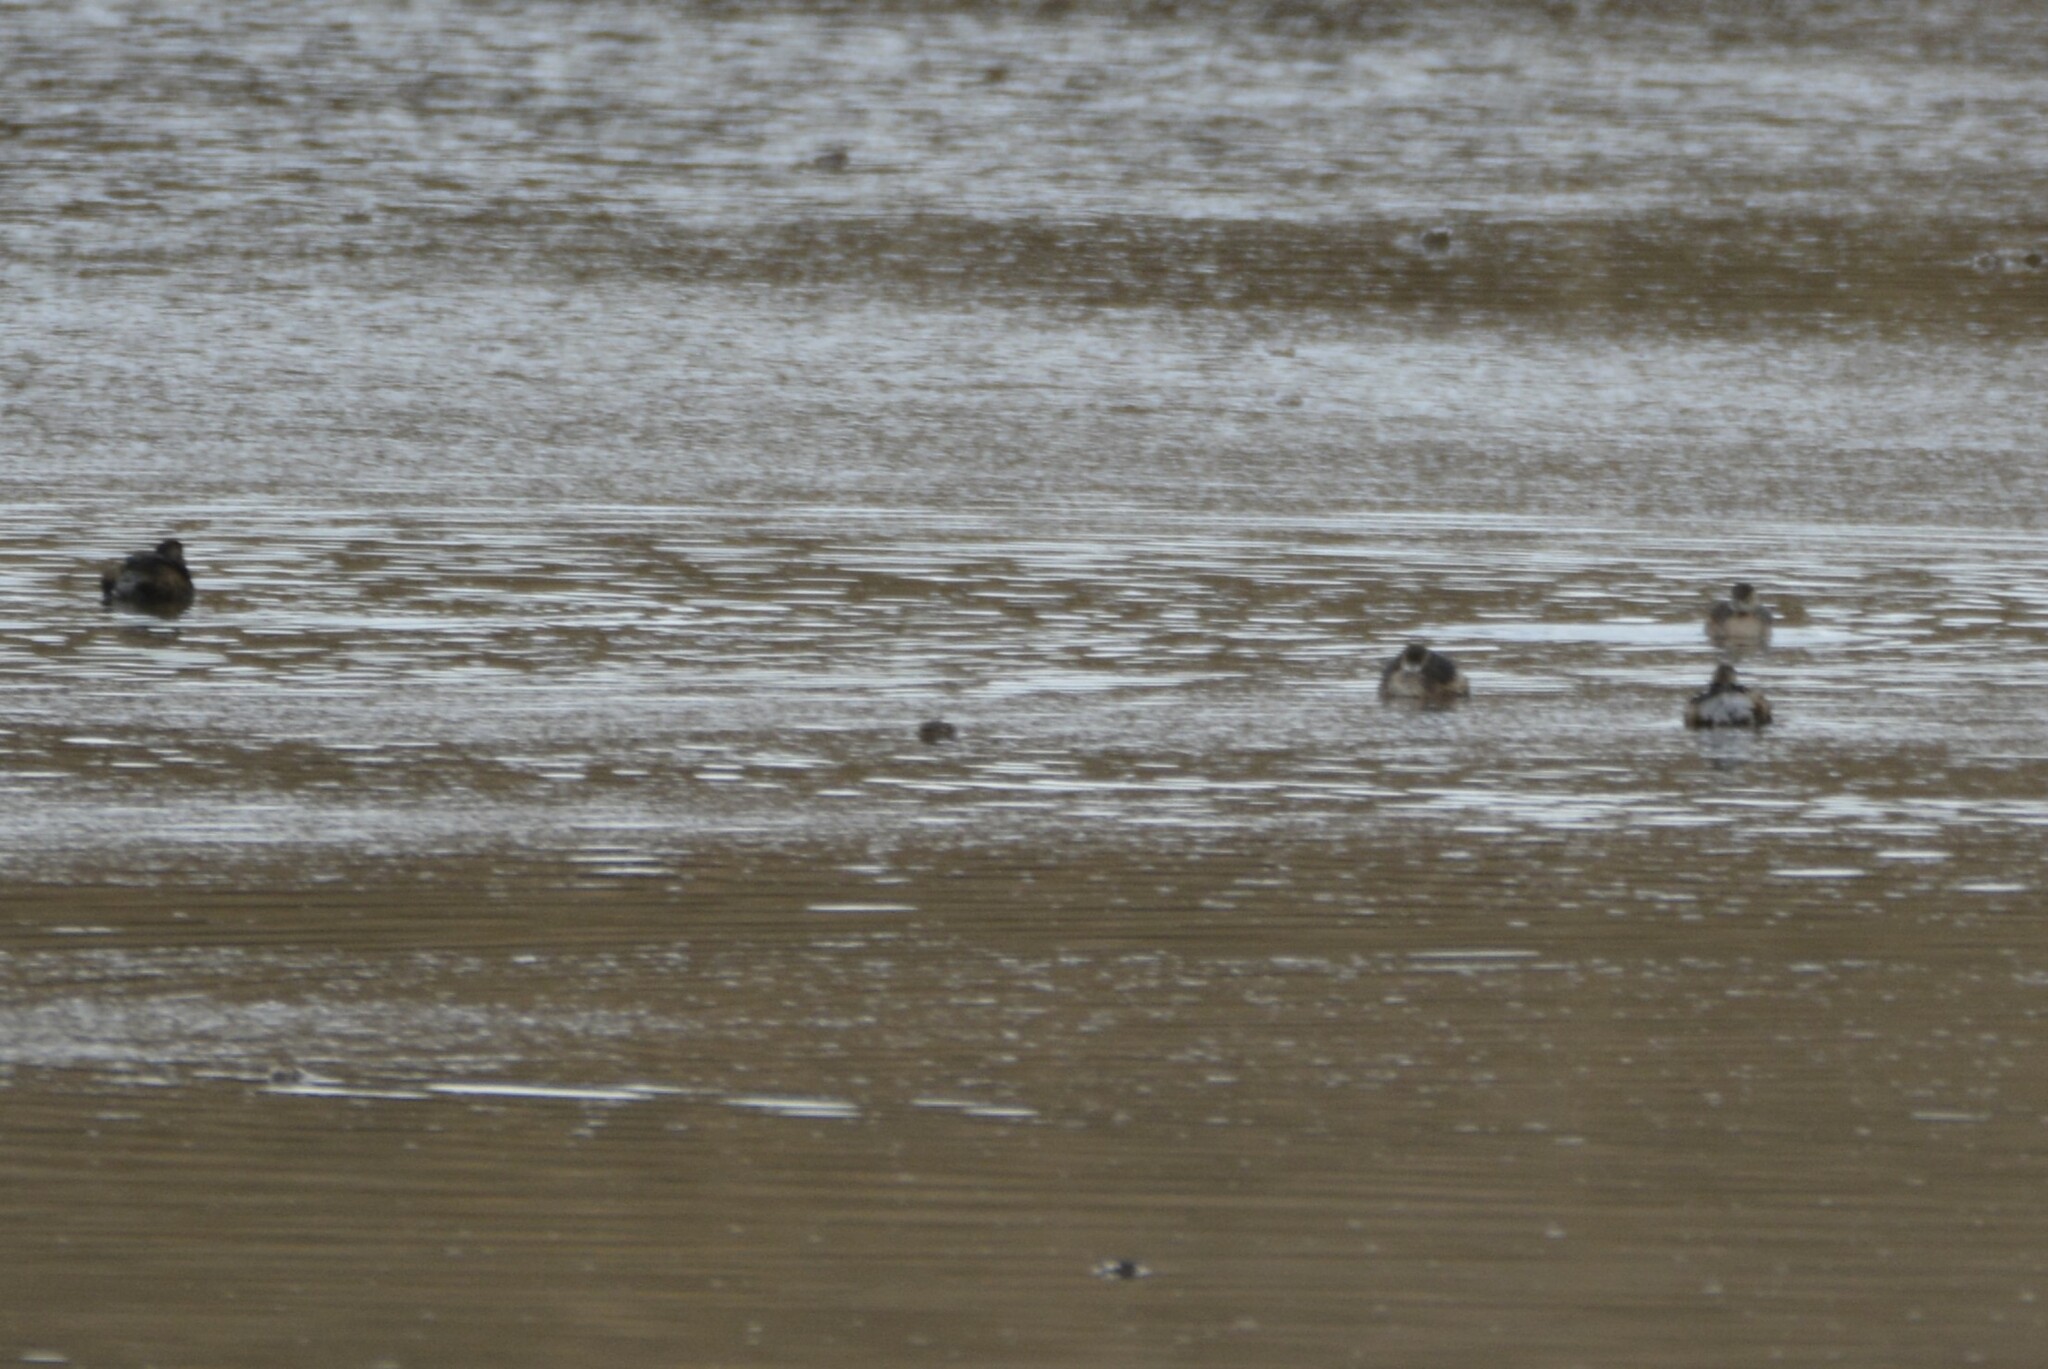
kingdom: Animalia
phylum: Chordata
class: Aves
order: Podicipediformes
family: Podicipedidae
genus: Tachybaptus
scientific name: Tachybaptus ruficollis
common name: Little grebe
